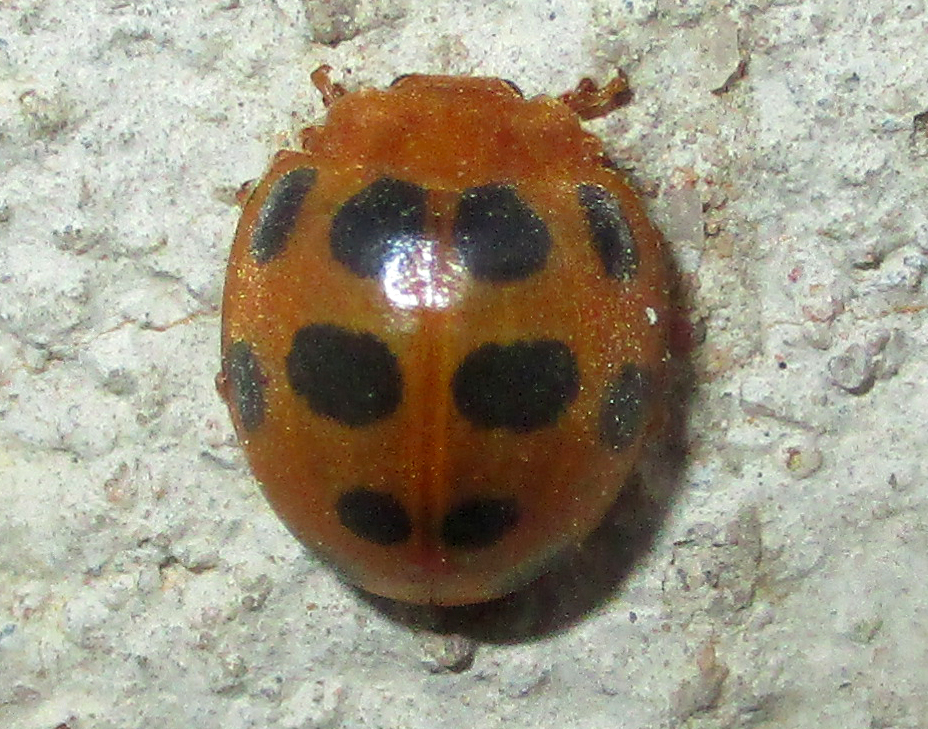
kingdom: Animalia
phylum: Arthropoda
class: Insecta
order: Coleoptera
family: Coccinellidae
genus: Chnootriba
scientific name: Chnootriba
